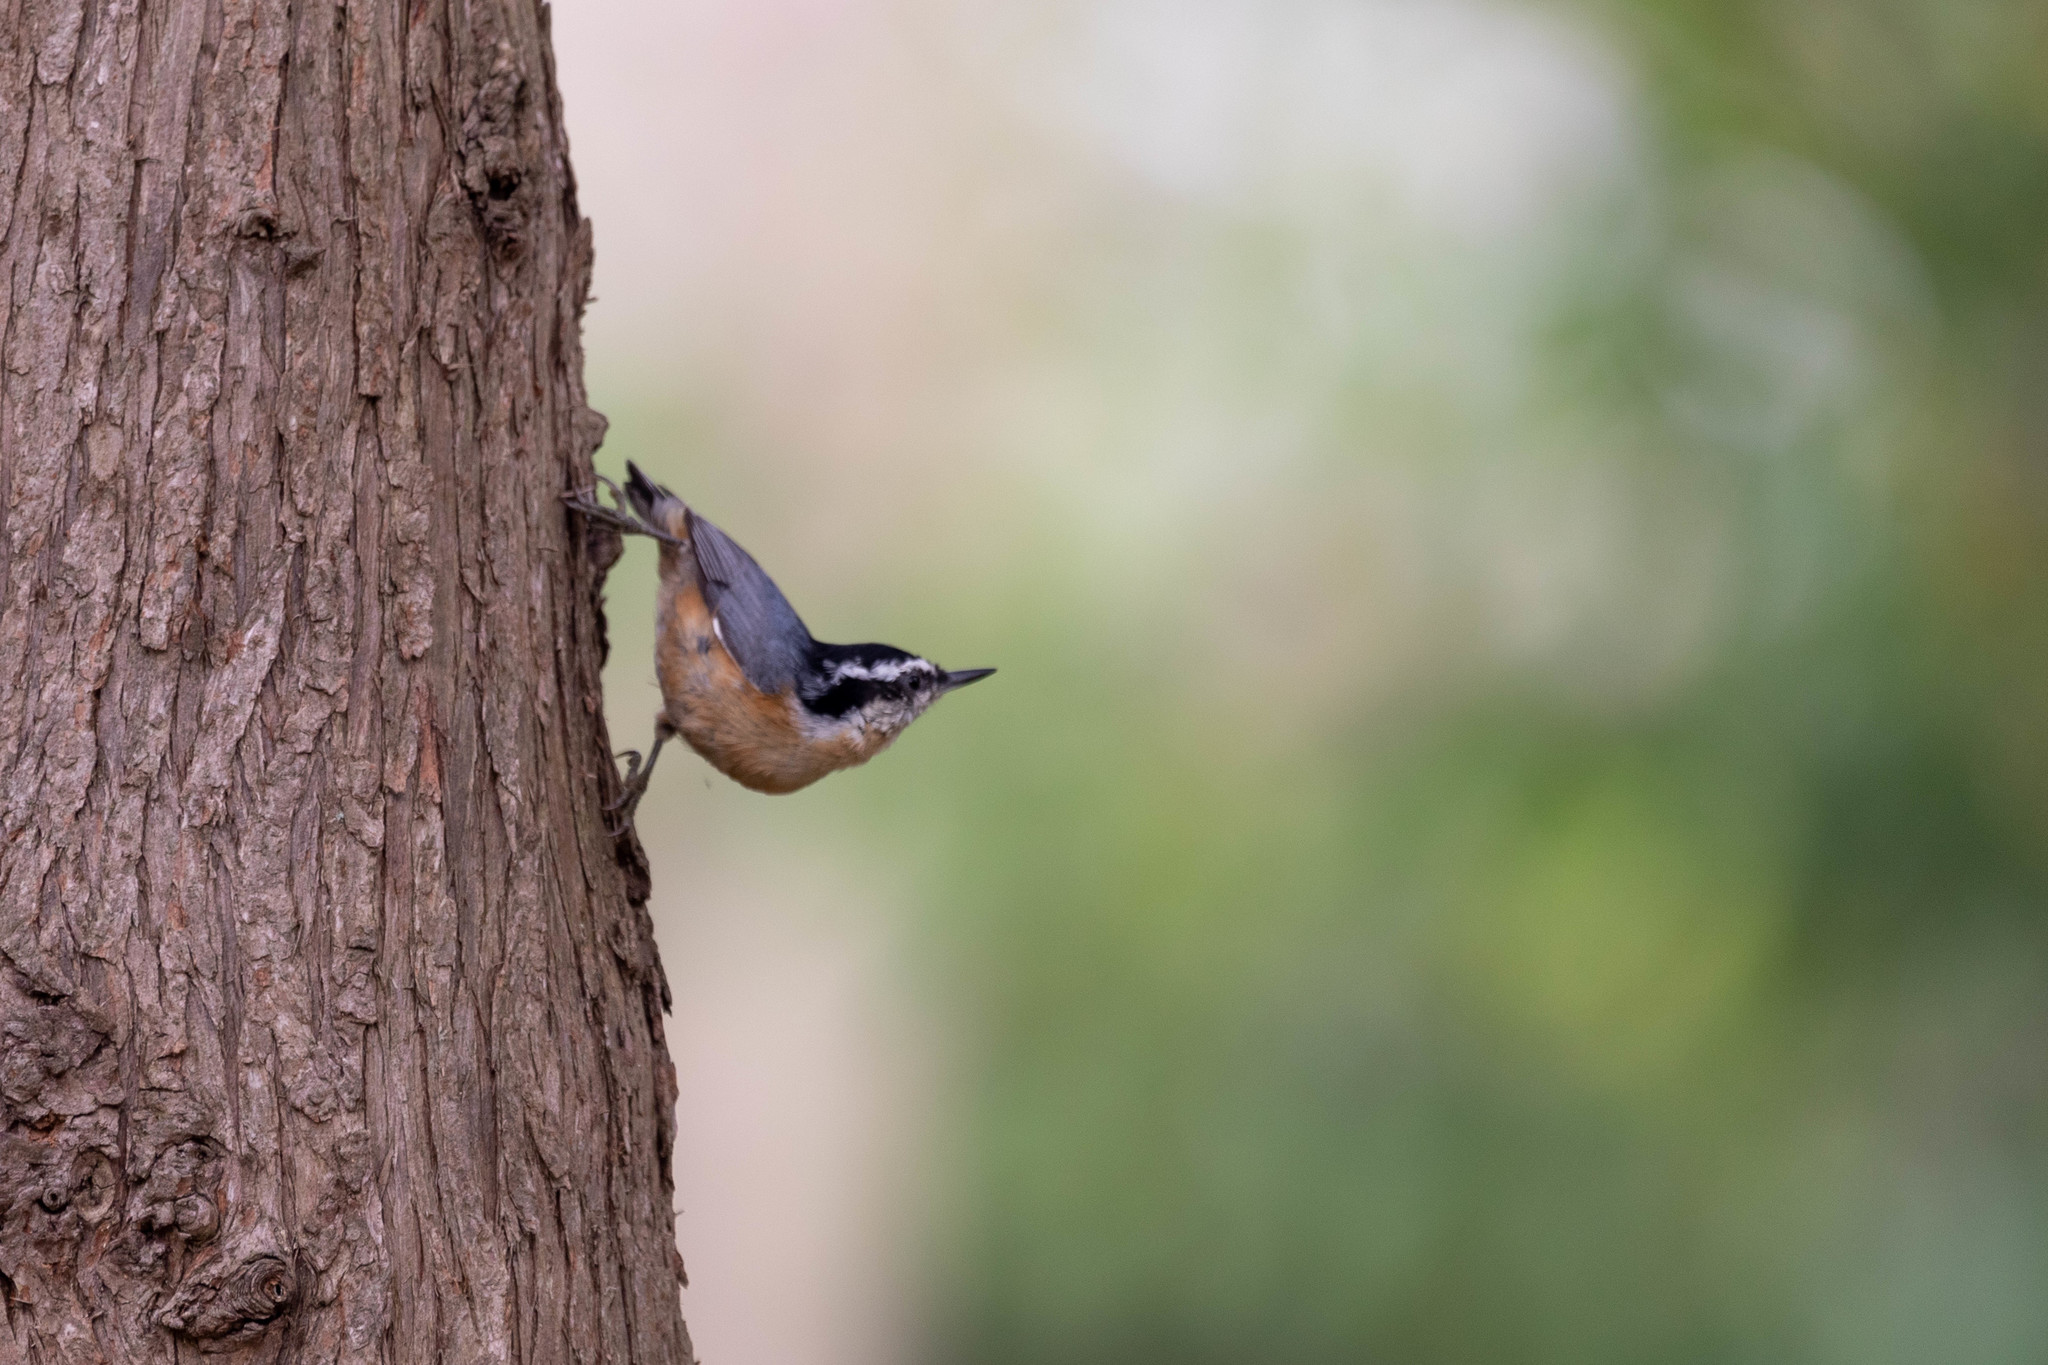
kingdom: Animalia
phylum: Chordata
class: Aves
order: Passeriformes
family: Sittidae
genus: Sitta
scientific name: Sitta canadensis
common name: Red-breasted nuthatch
